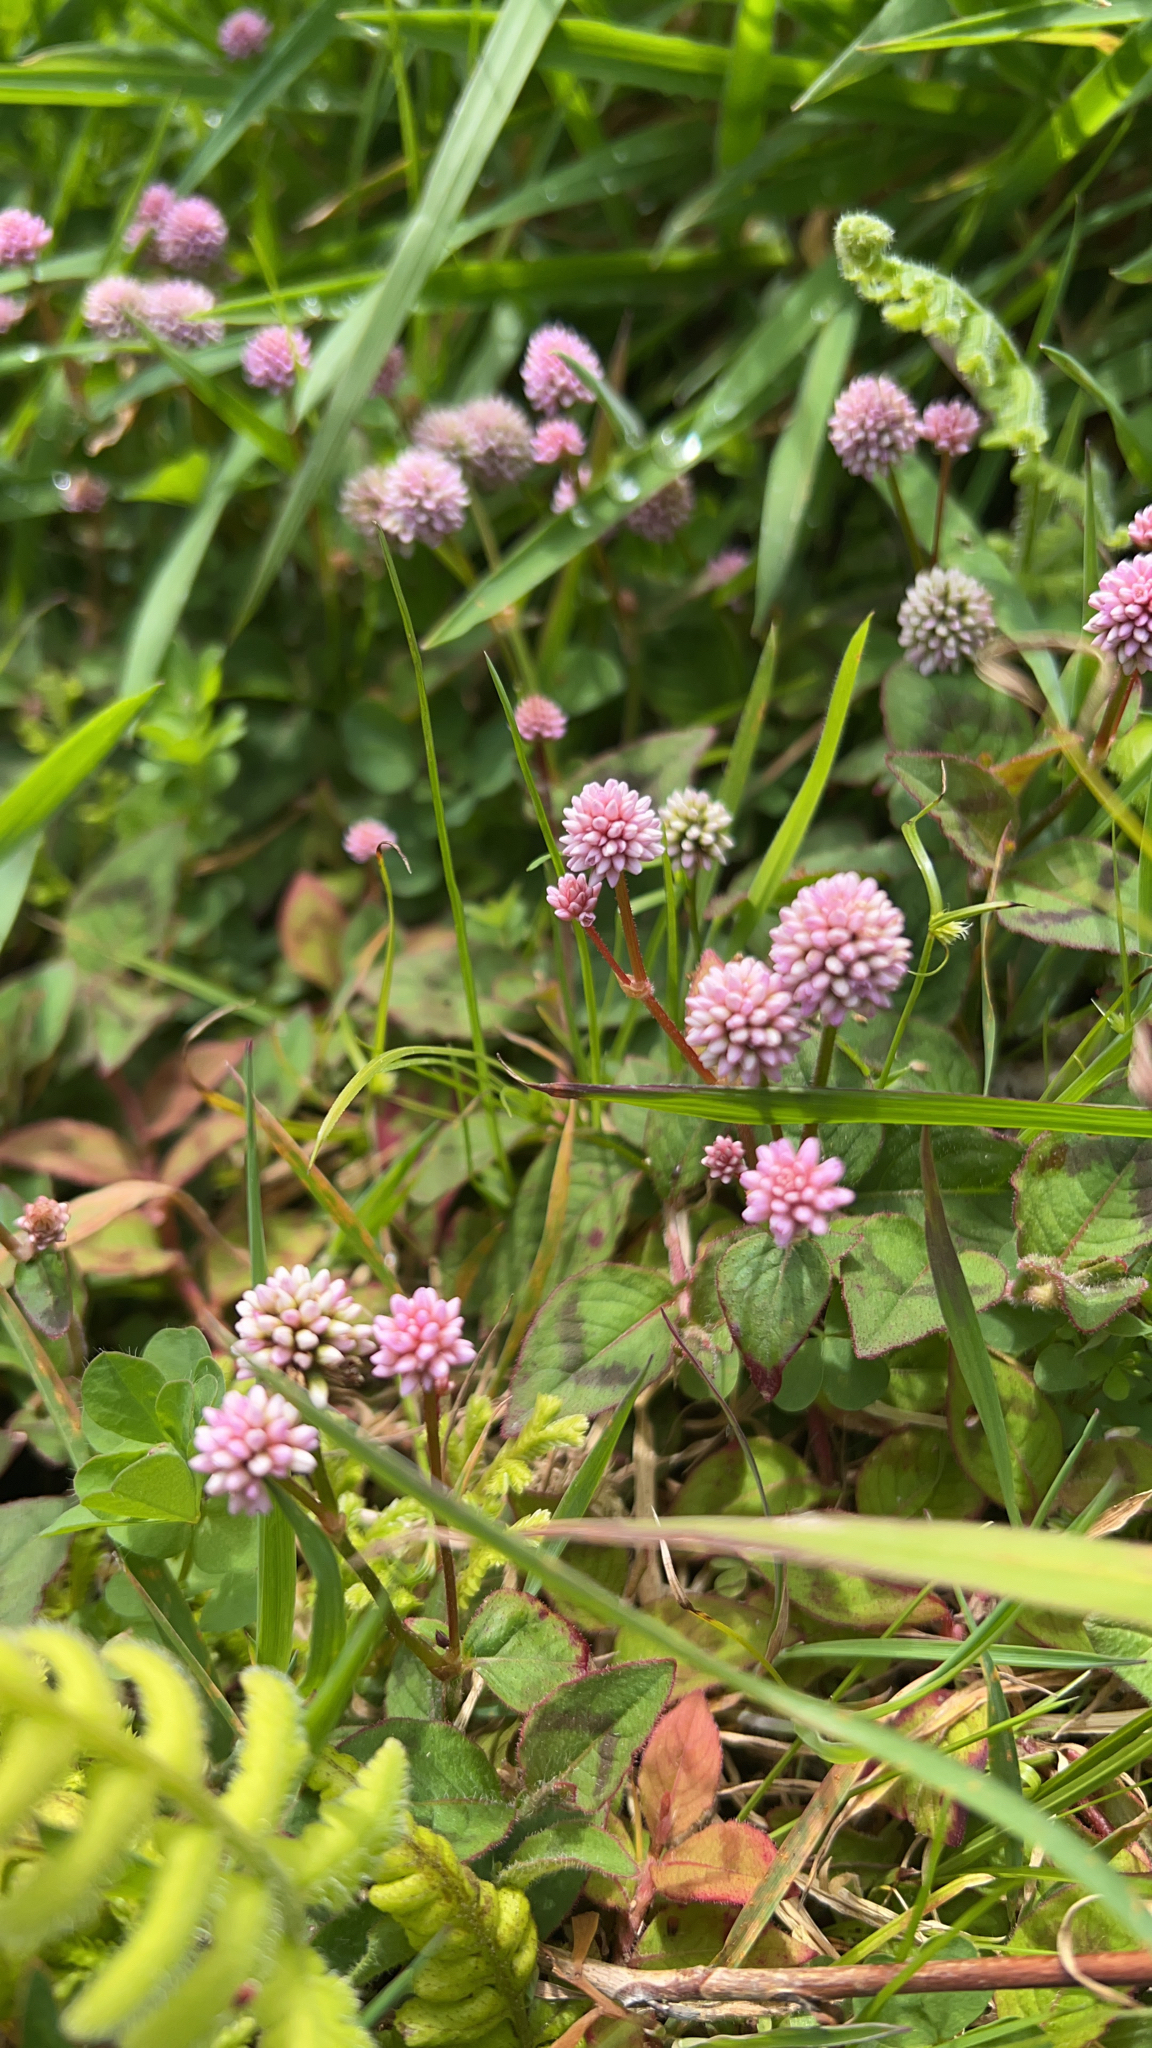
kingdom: Plantae
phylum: Tracheophyta
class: Magnoliopsida
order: Caryophyllales
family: Polygonaceae
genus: Persicaria
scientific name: Persicaria capitata
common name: Pinkhead smartweed
